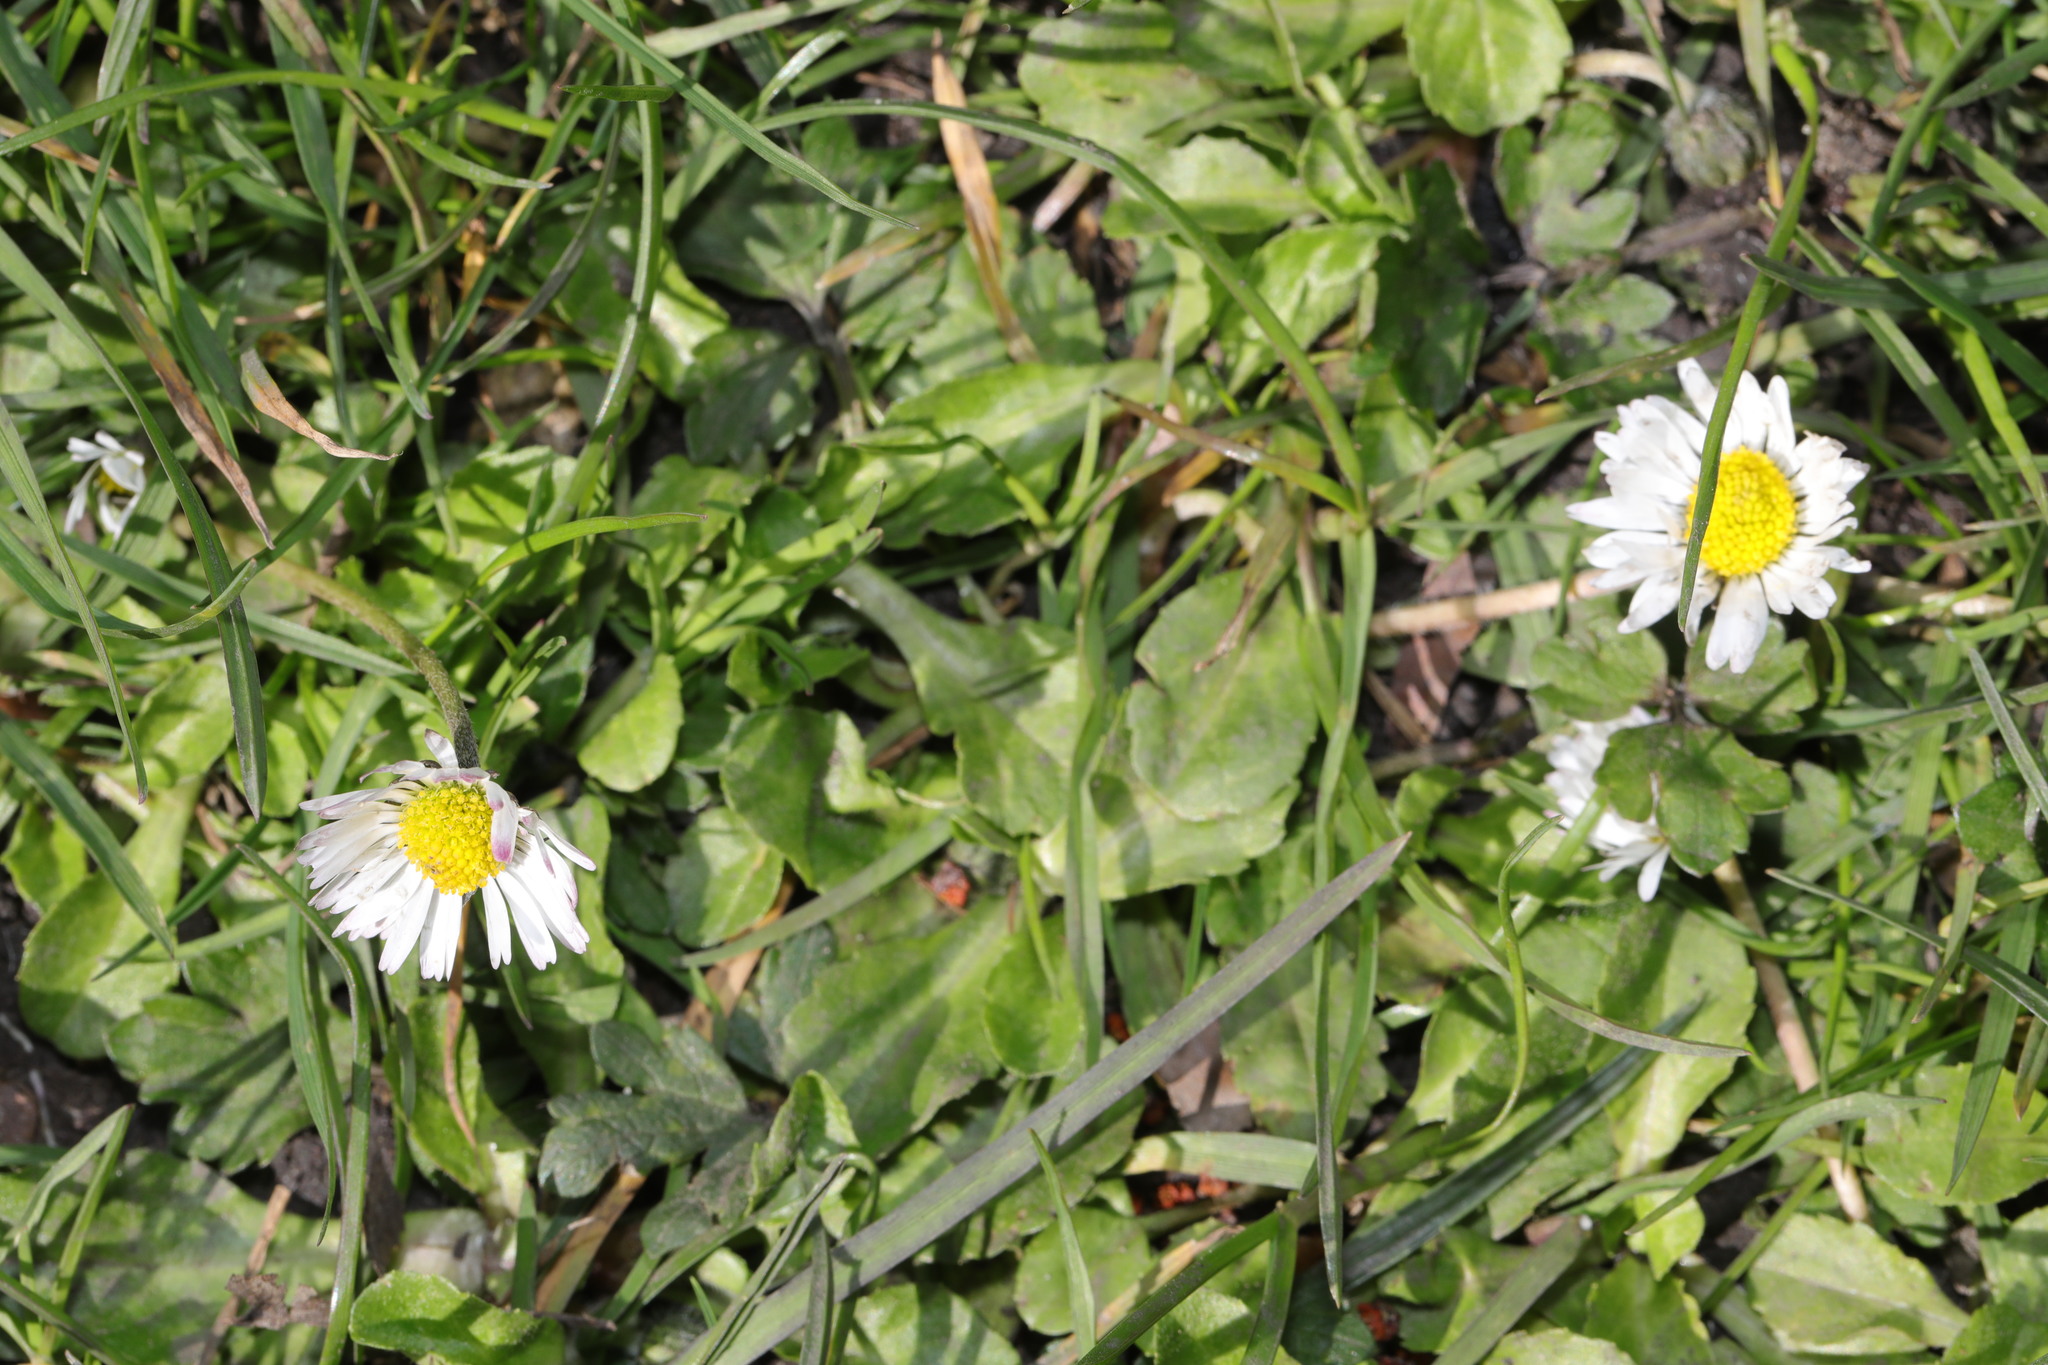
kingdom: Plantae
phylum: Tracheophyta
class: Magnoliopsida
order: Asterales
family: Asteraceae
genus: Bellis
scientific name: Bellis perennis
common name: Lawndaisy
